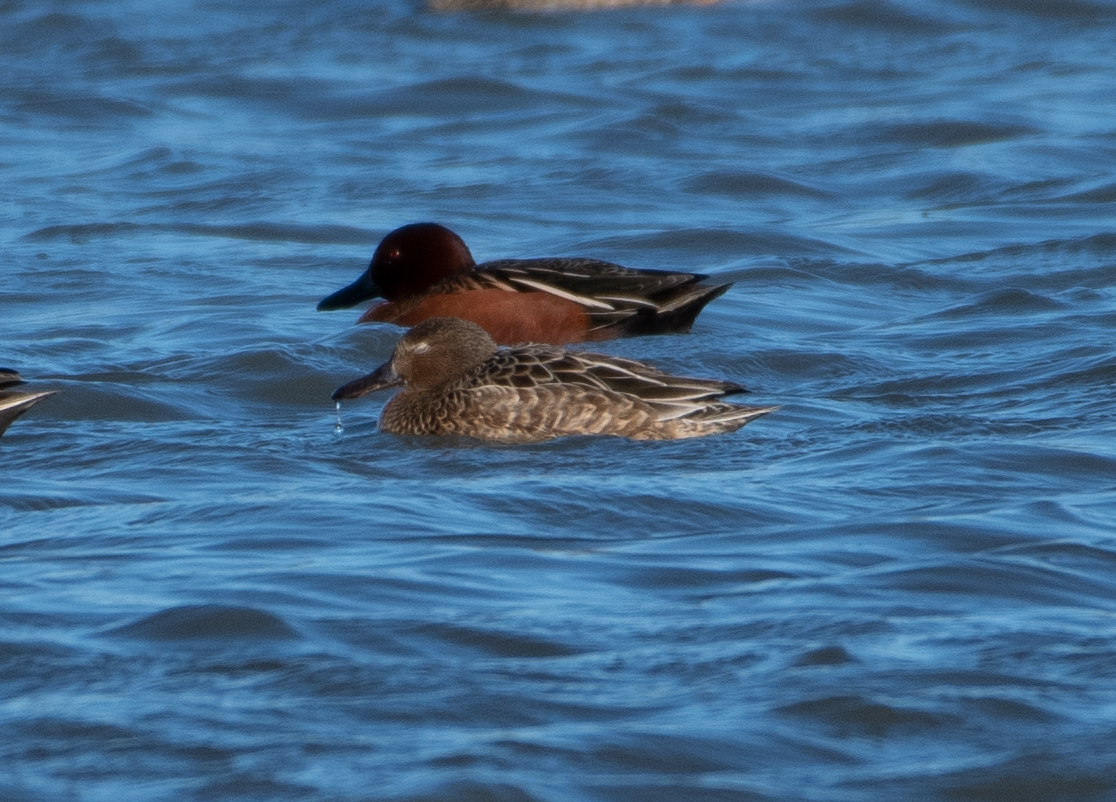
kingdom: Animalia
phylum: Chordata
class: Aves
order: Anseriformes
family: Anatidae
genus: Spatula
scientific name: Spatula cyanoptera
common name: Cinnamon teal
